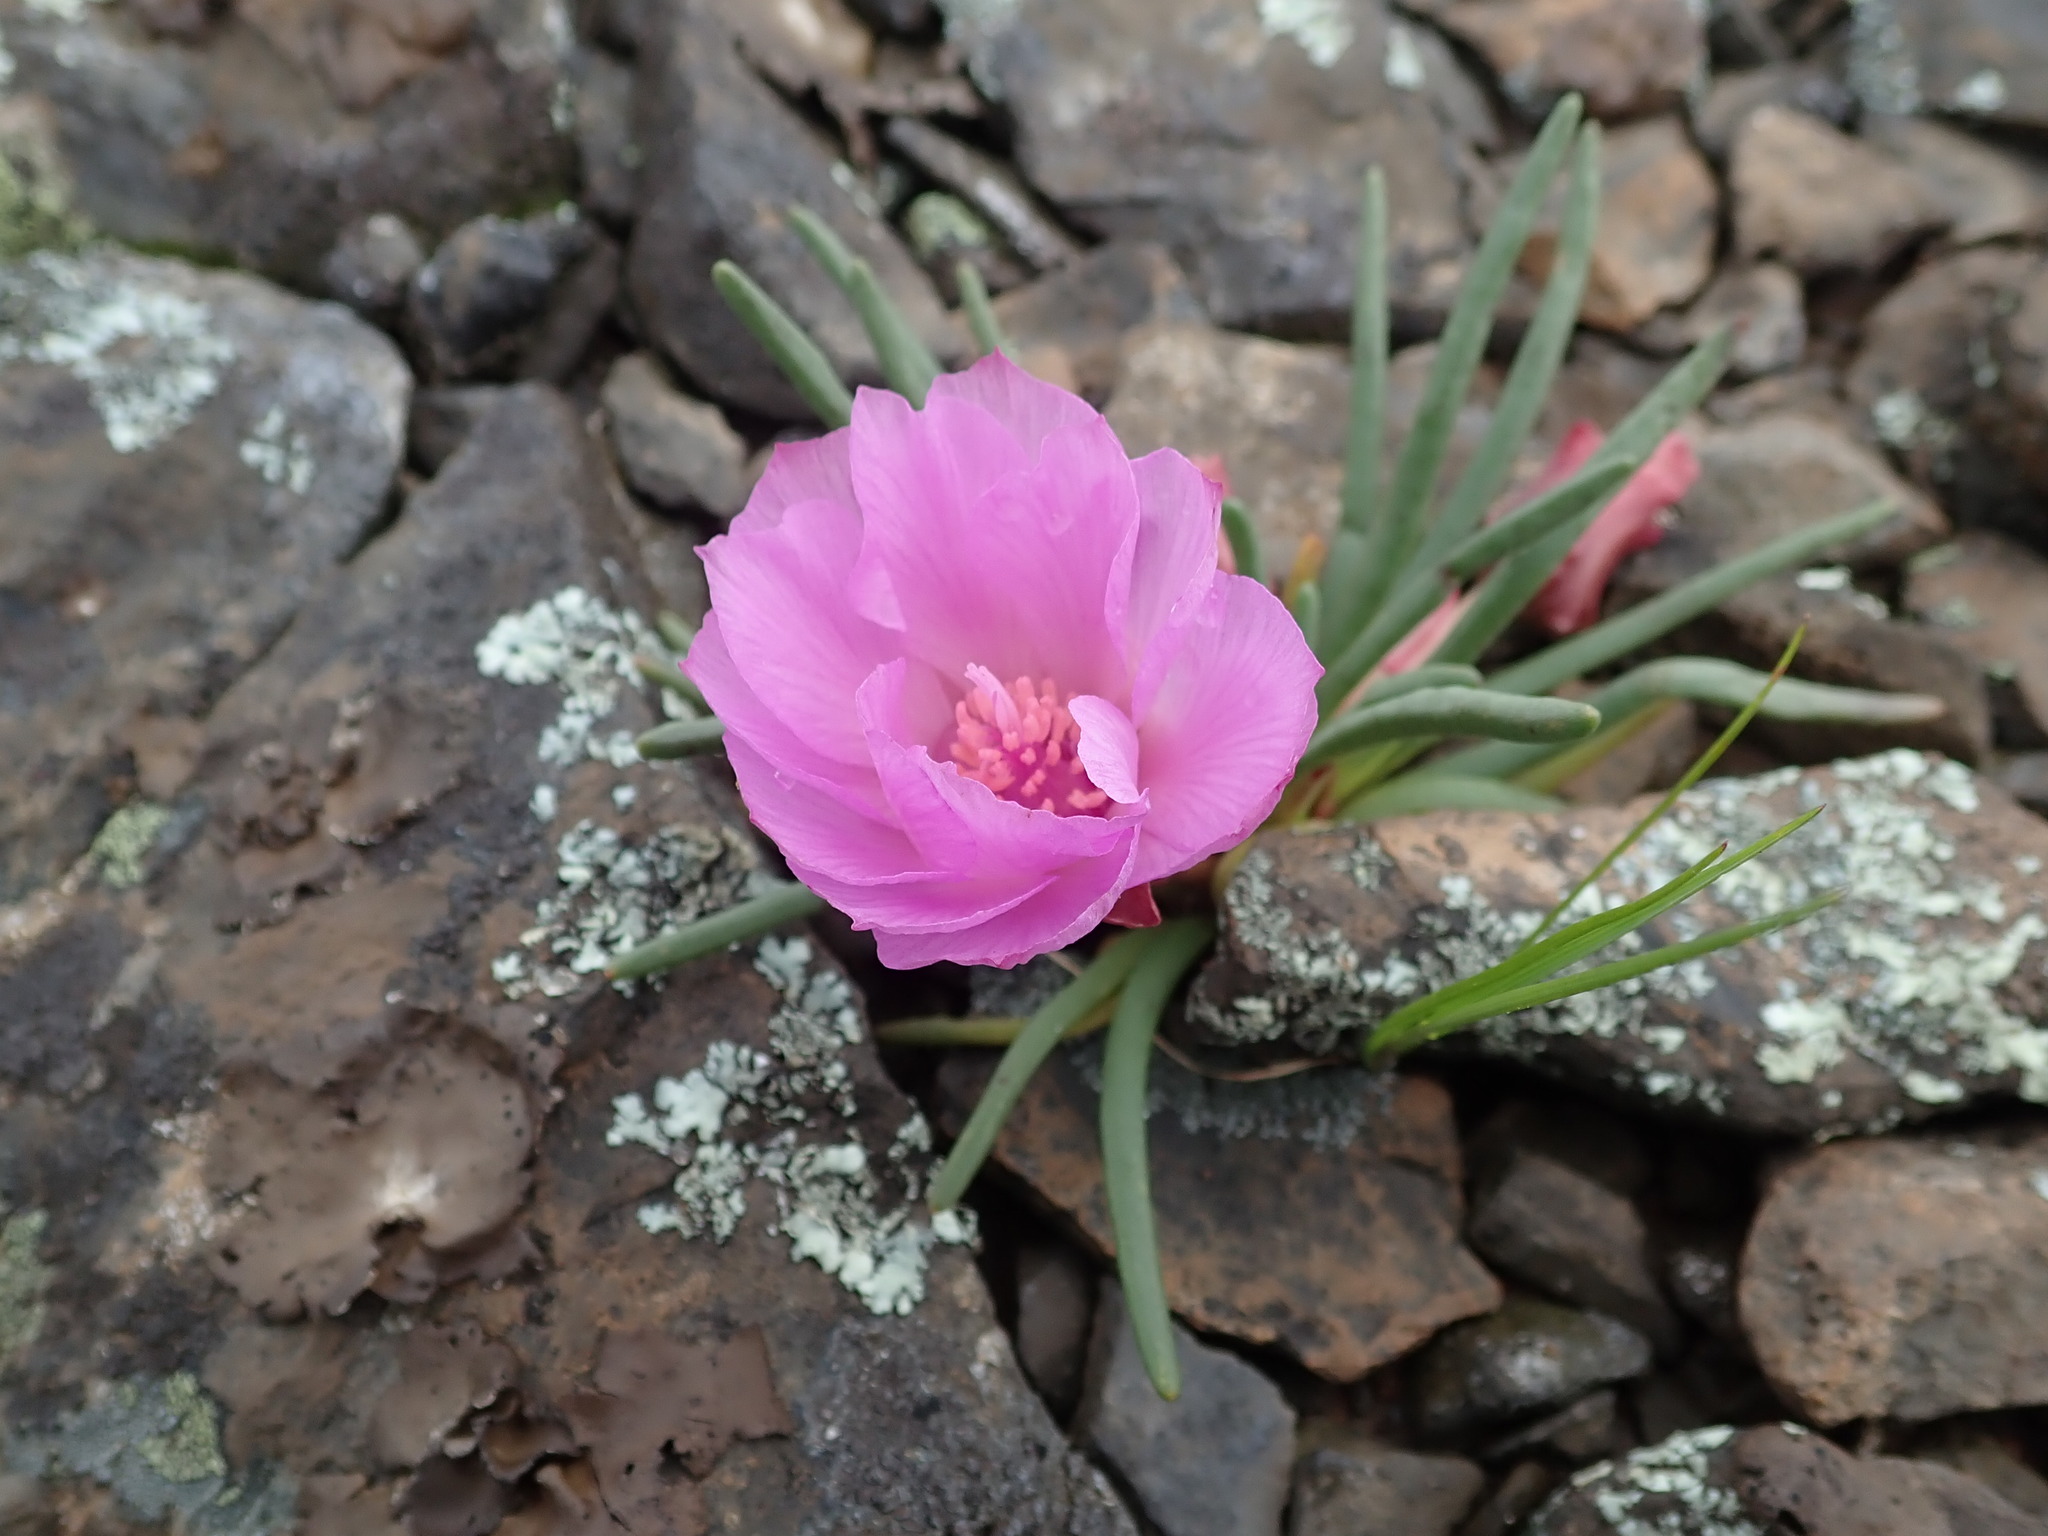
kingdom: Plantae
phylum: Tracheophyta
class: Magnoliopsida
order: Caryophyllales
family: Montiaceae
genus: Lewisia
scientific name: Lewisia rediviva
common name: Bitter-root
